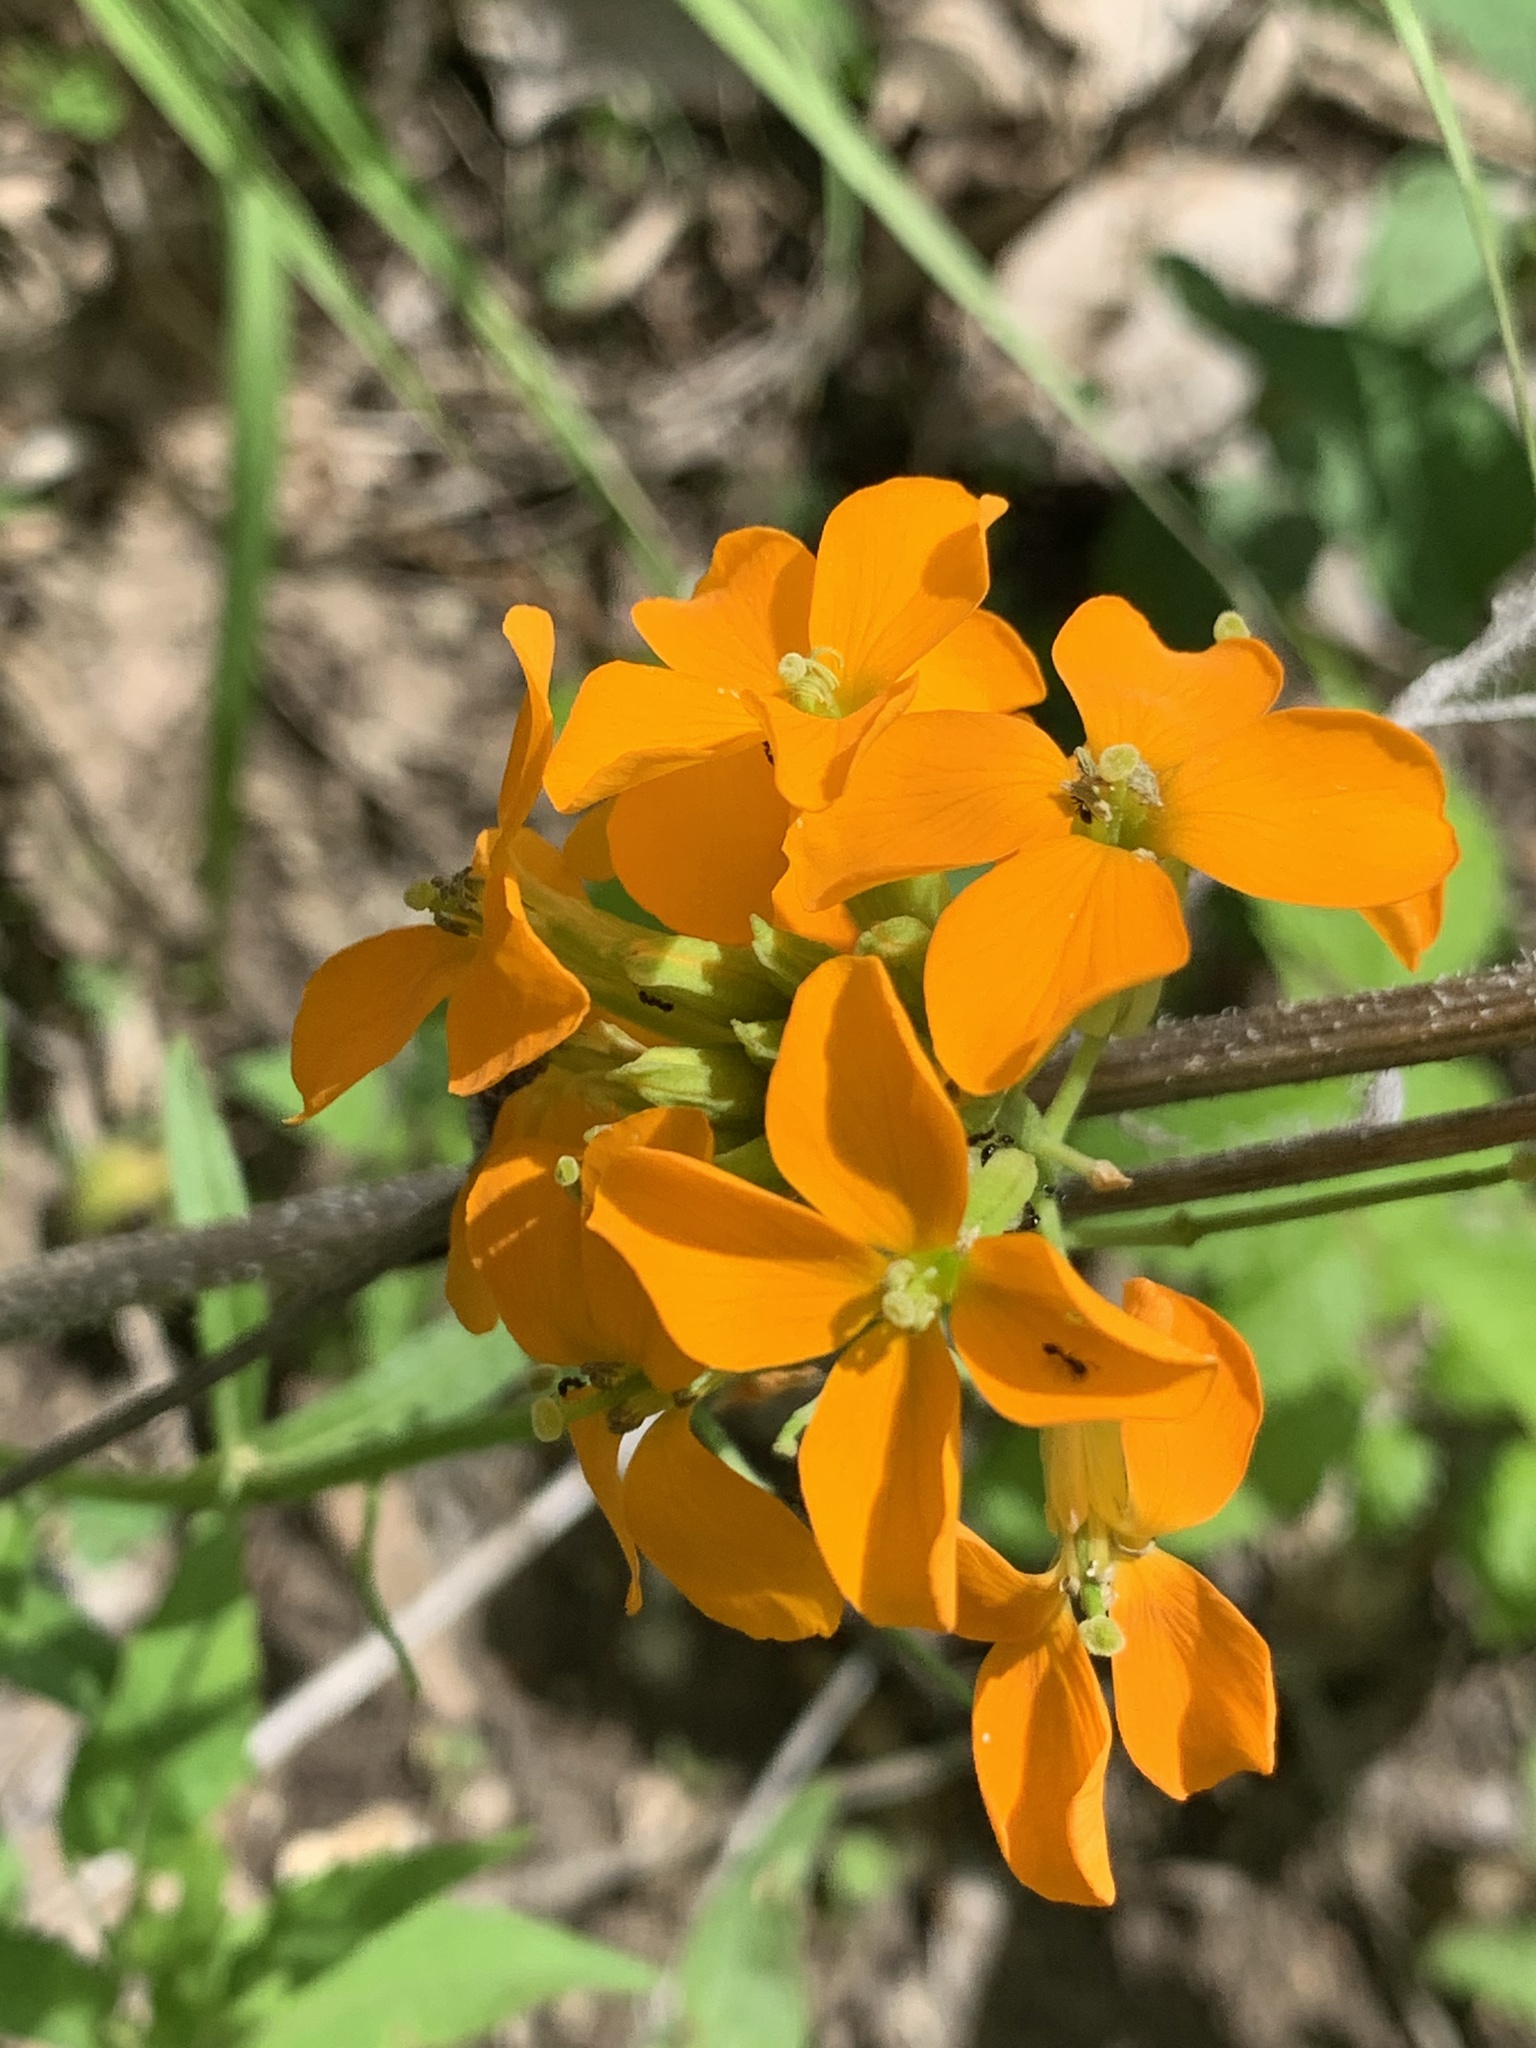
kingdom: Plantae
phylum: Tracheophyta
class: Magnoliopsida
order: Brassicales
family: Brassicaceae
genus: Erysimum
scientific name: Erysimum capitatum
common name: Western wallflower
